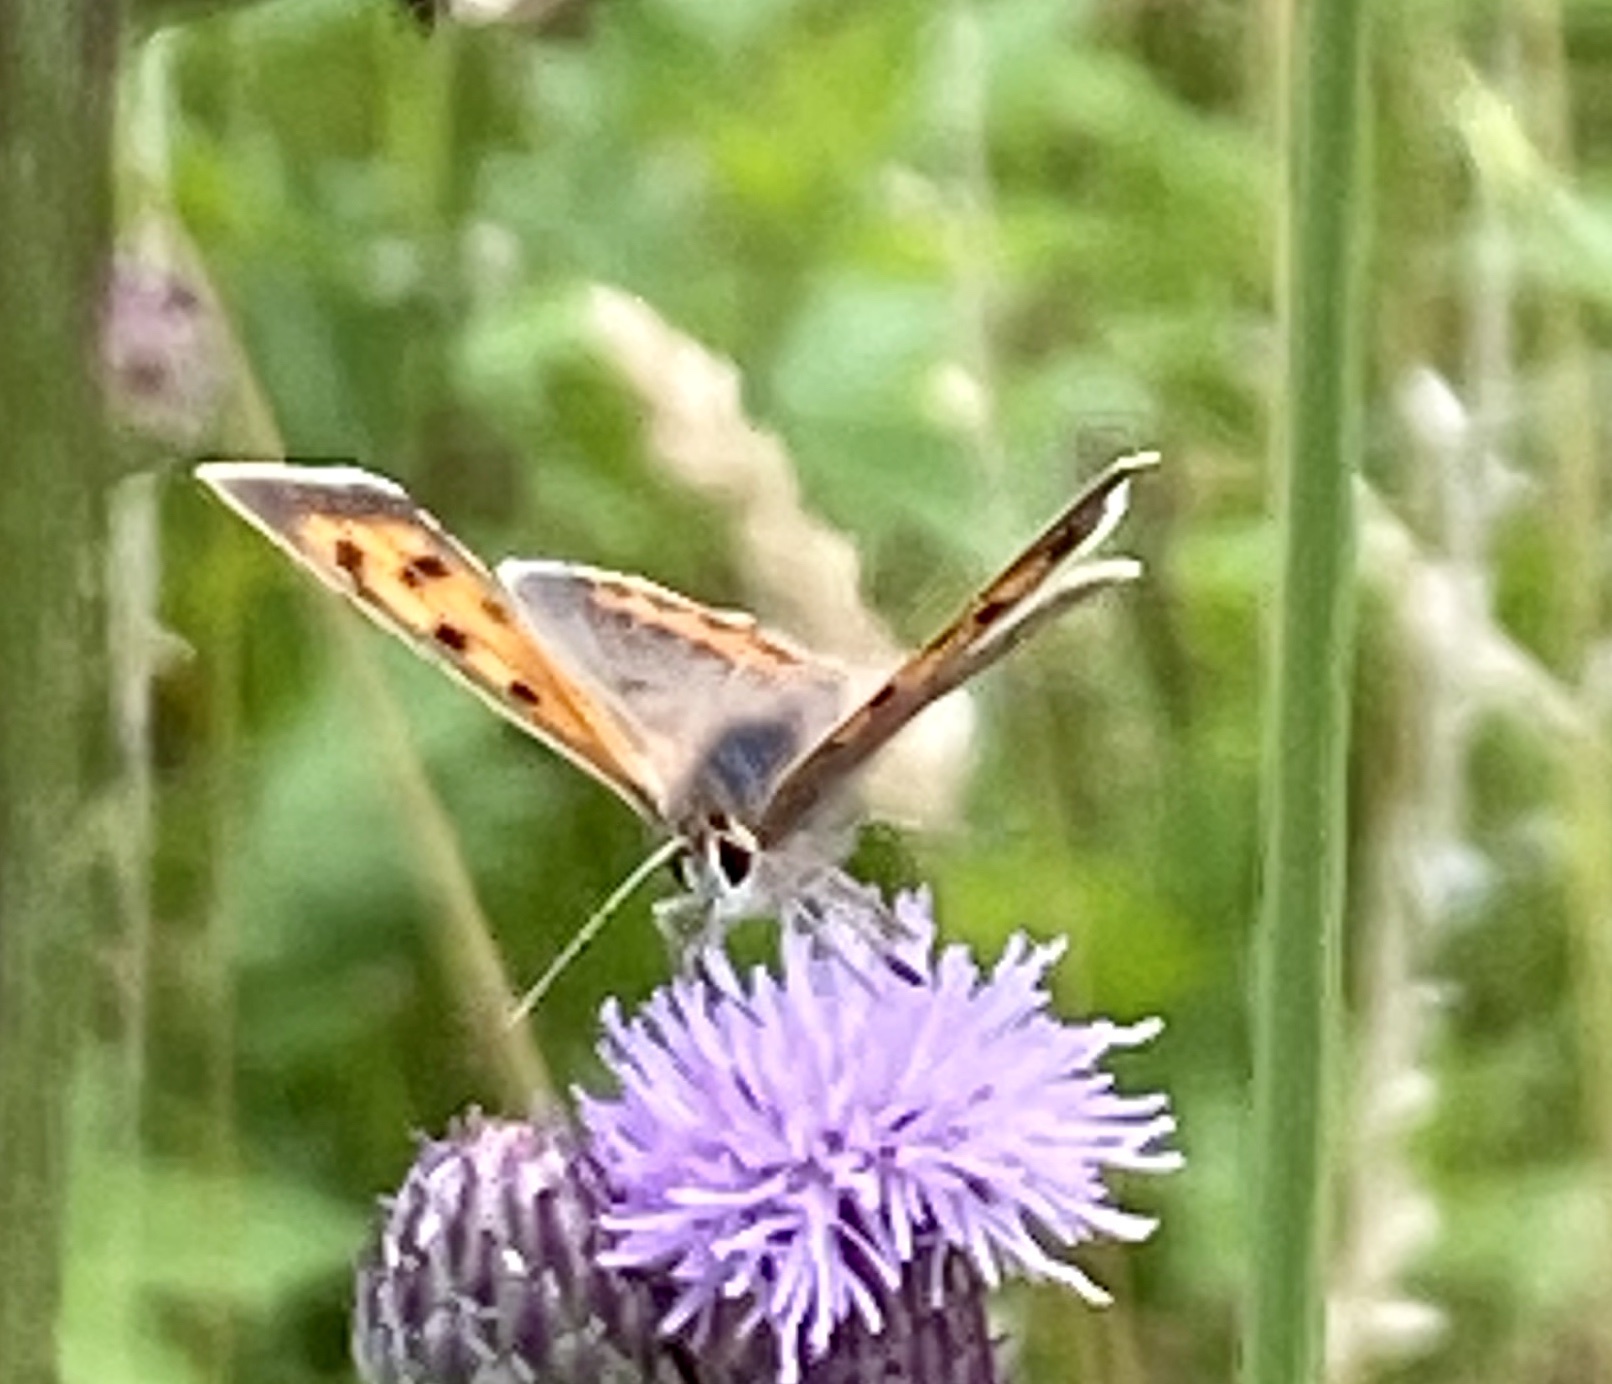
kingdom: Animalia
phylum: Arthropoda
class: Insecta
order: Lepidoptera
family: Lycaenidae
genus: Lycaena
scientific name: Lycaena phlaeas
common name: Small copper
